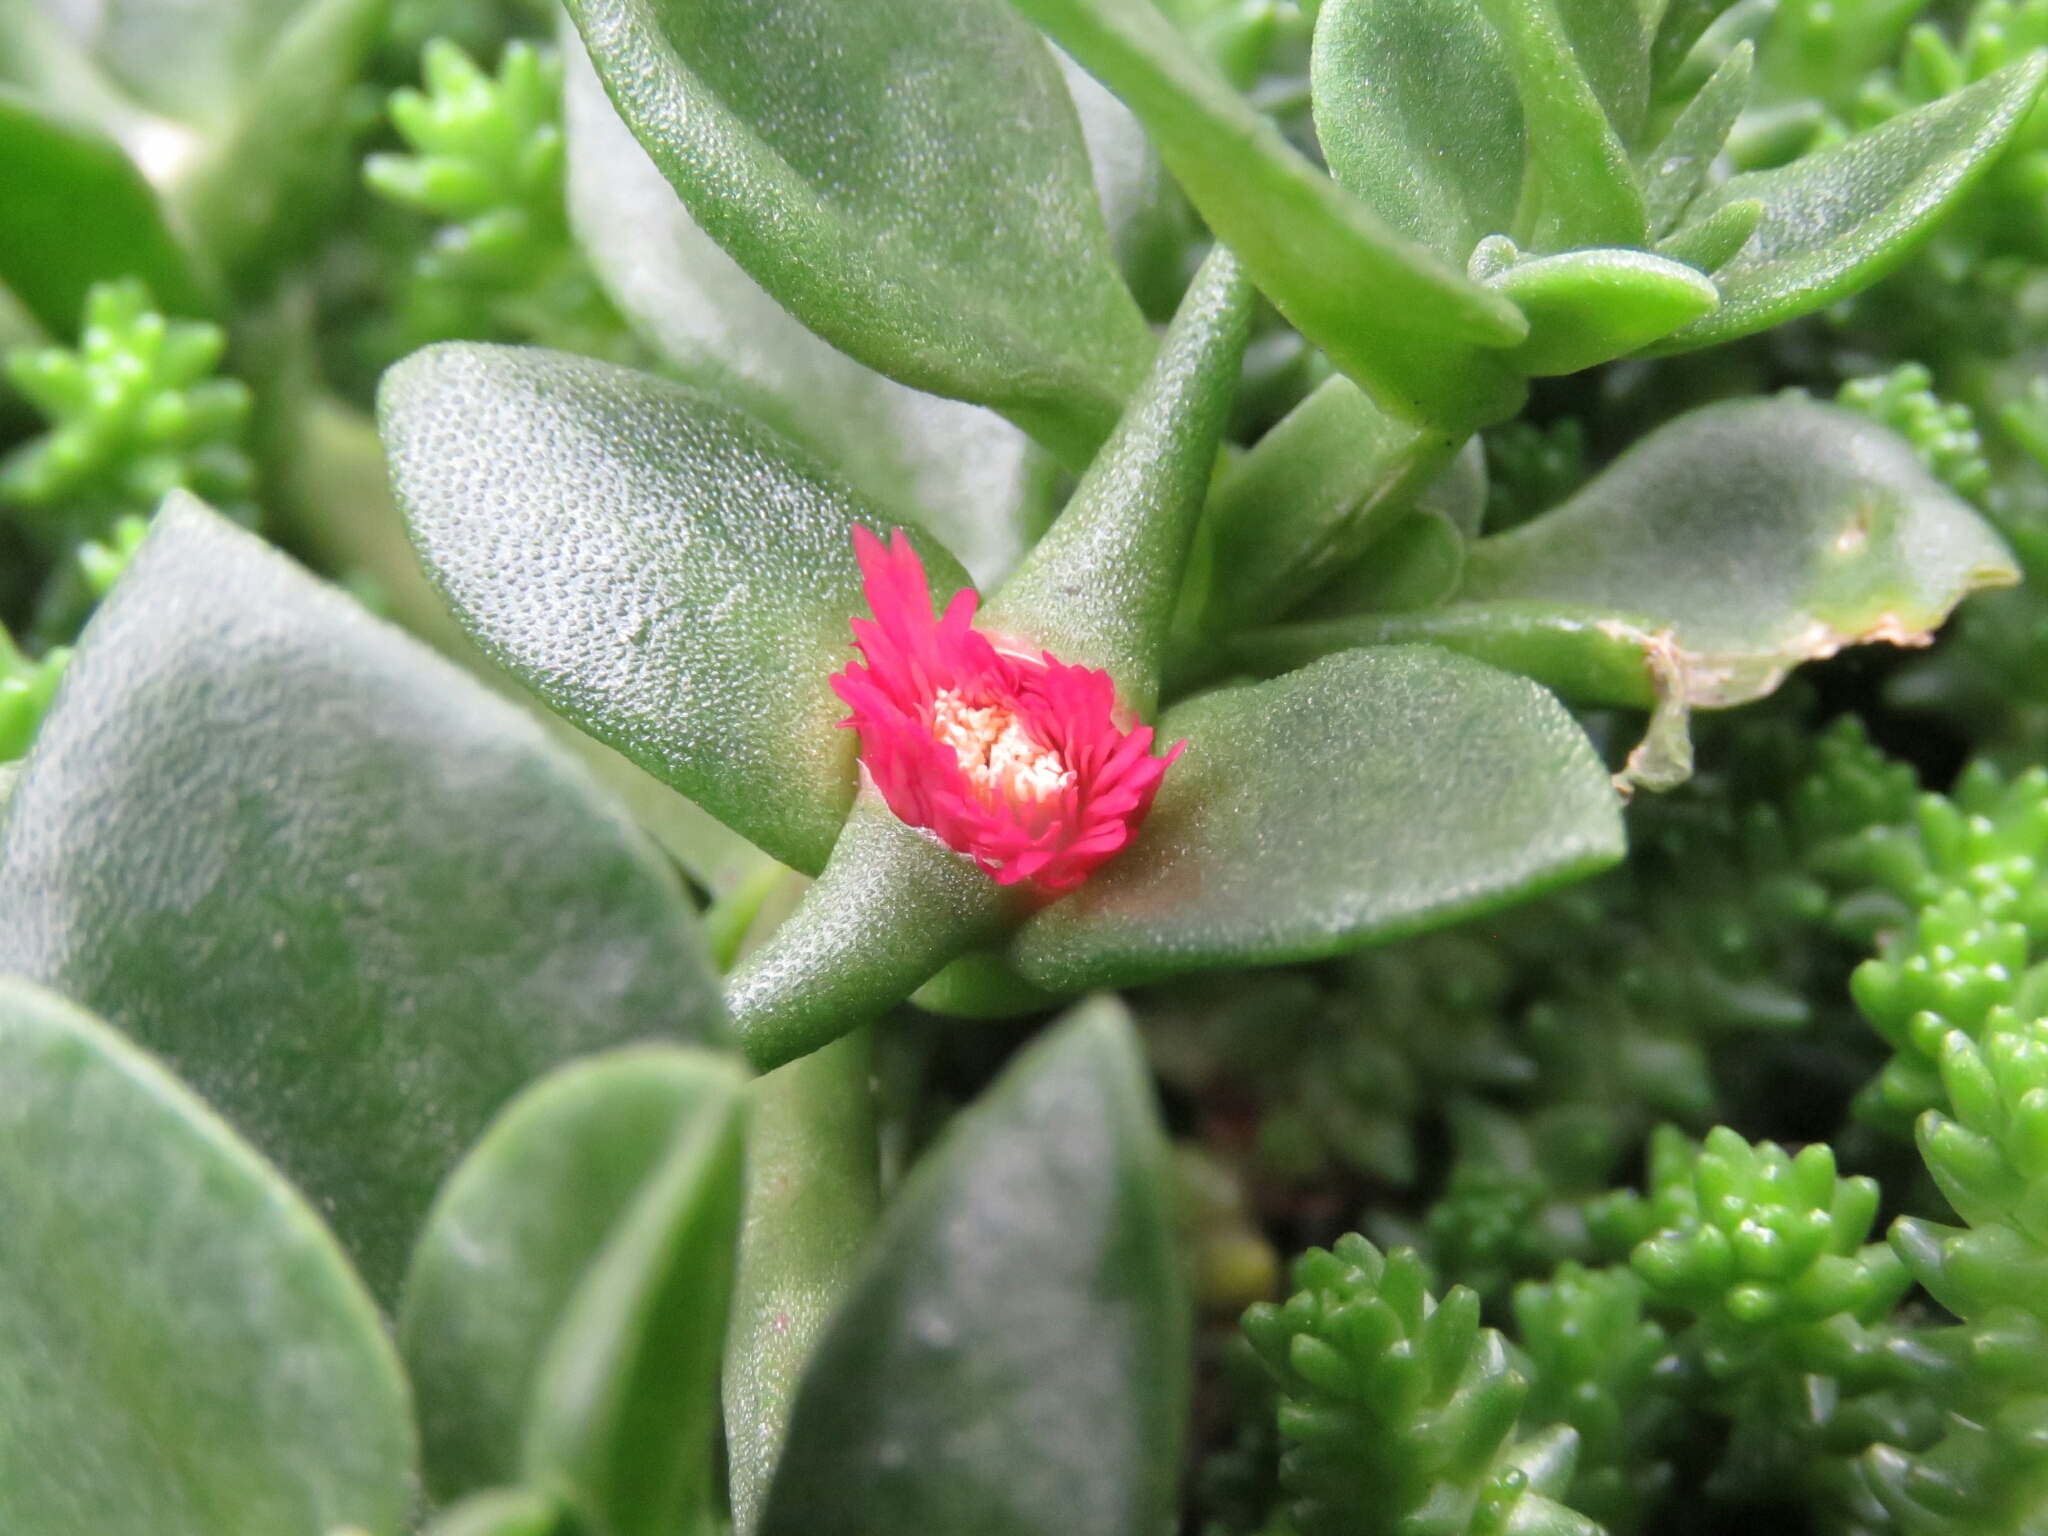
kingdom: Plantae
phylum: Tracheophyta
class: Magnoliopsida
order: Caryophyllales
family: Aizoaceae
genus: Mesembryanthemum
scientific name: Mesembryanthemum cordifolium
